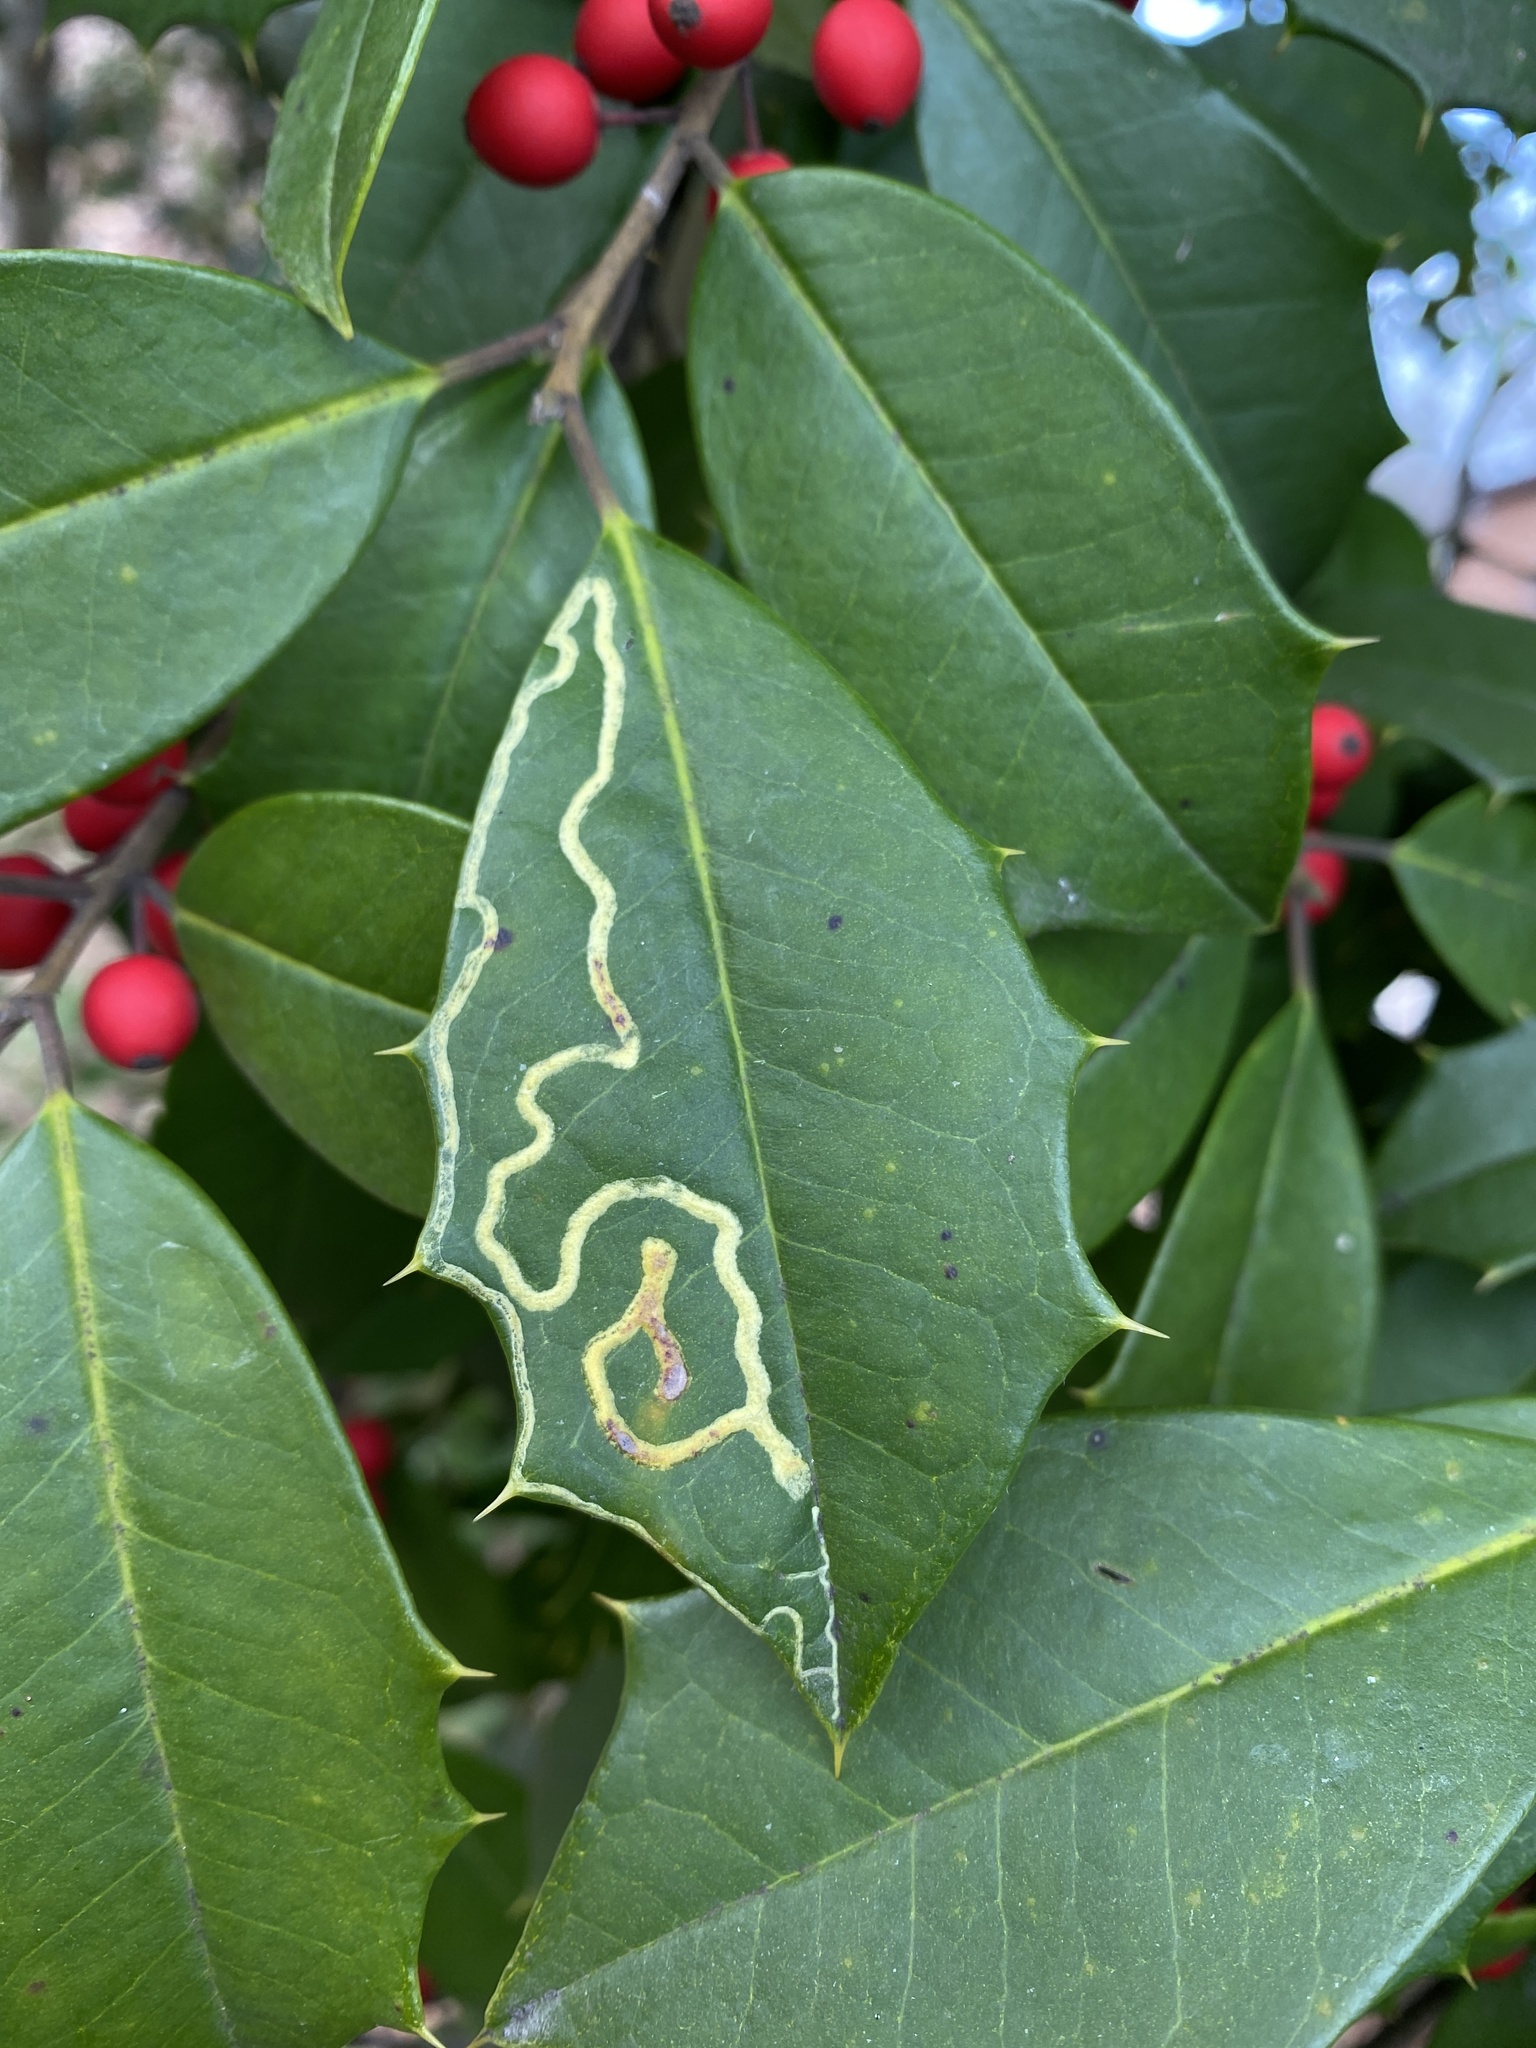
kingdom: Animalia
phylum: Arthropoda
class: Insecta
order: Diptera
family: Agromyzidae
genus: Phytomyza
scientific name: Phytomyza opacae
